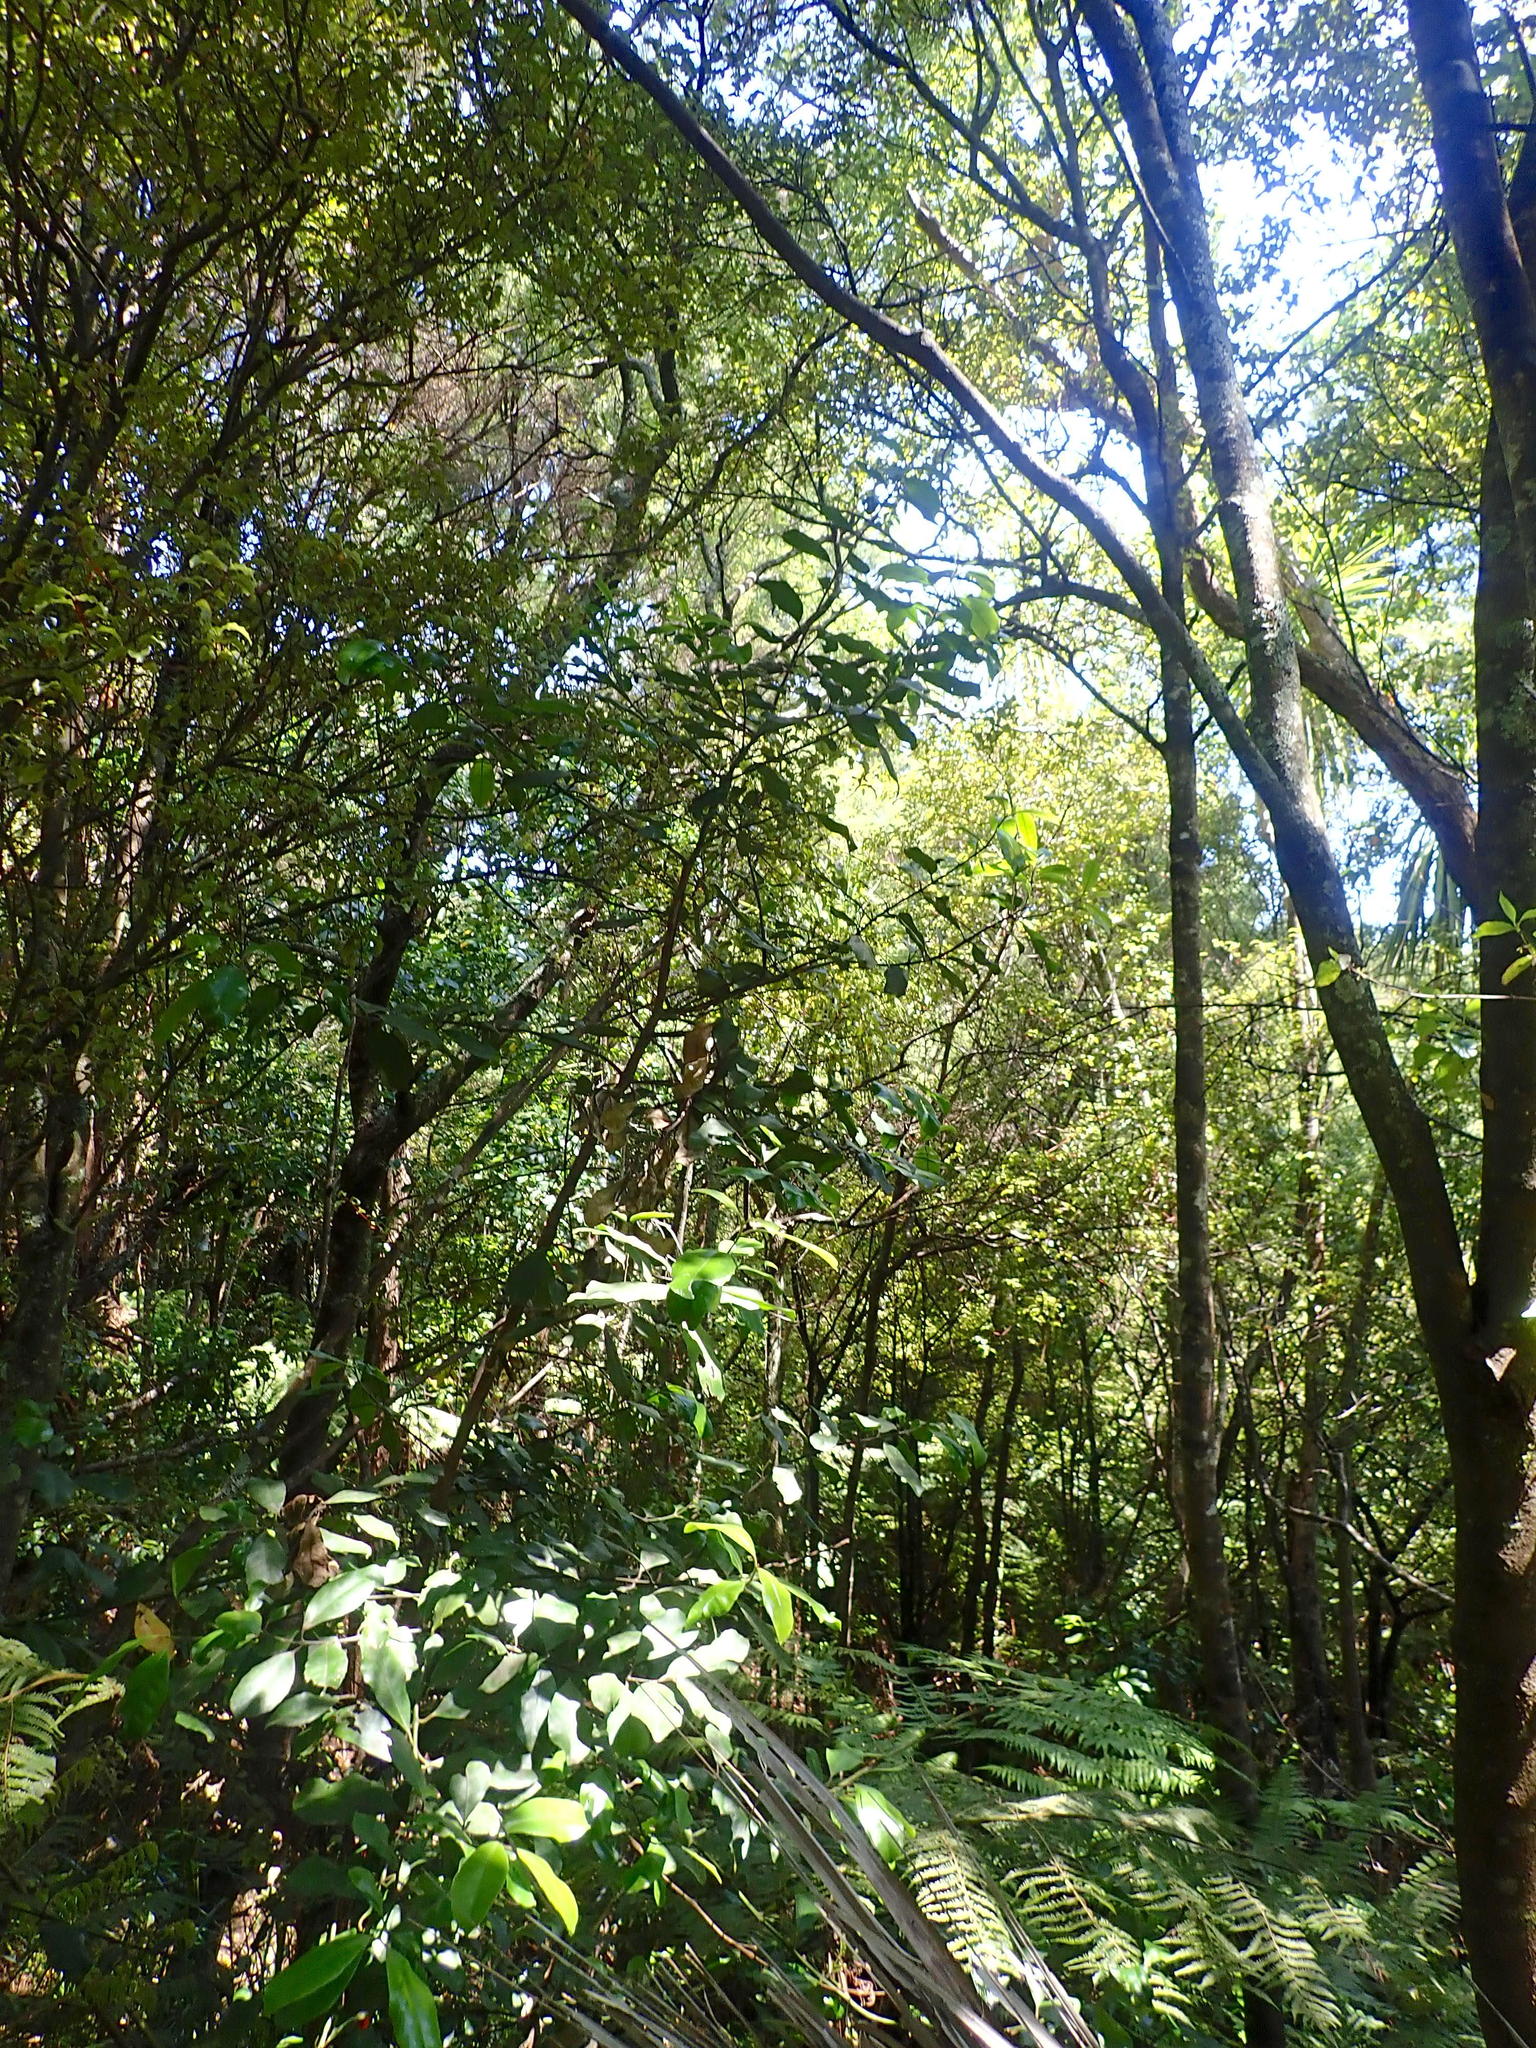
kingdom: Plantae
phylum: Tracheophyta
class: Polypodiopsida
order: Cyatheales
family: Cyatheaceae
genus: Alsophila
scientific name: Alsophila dealbata
